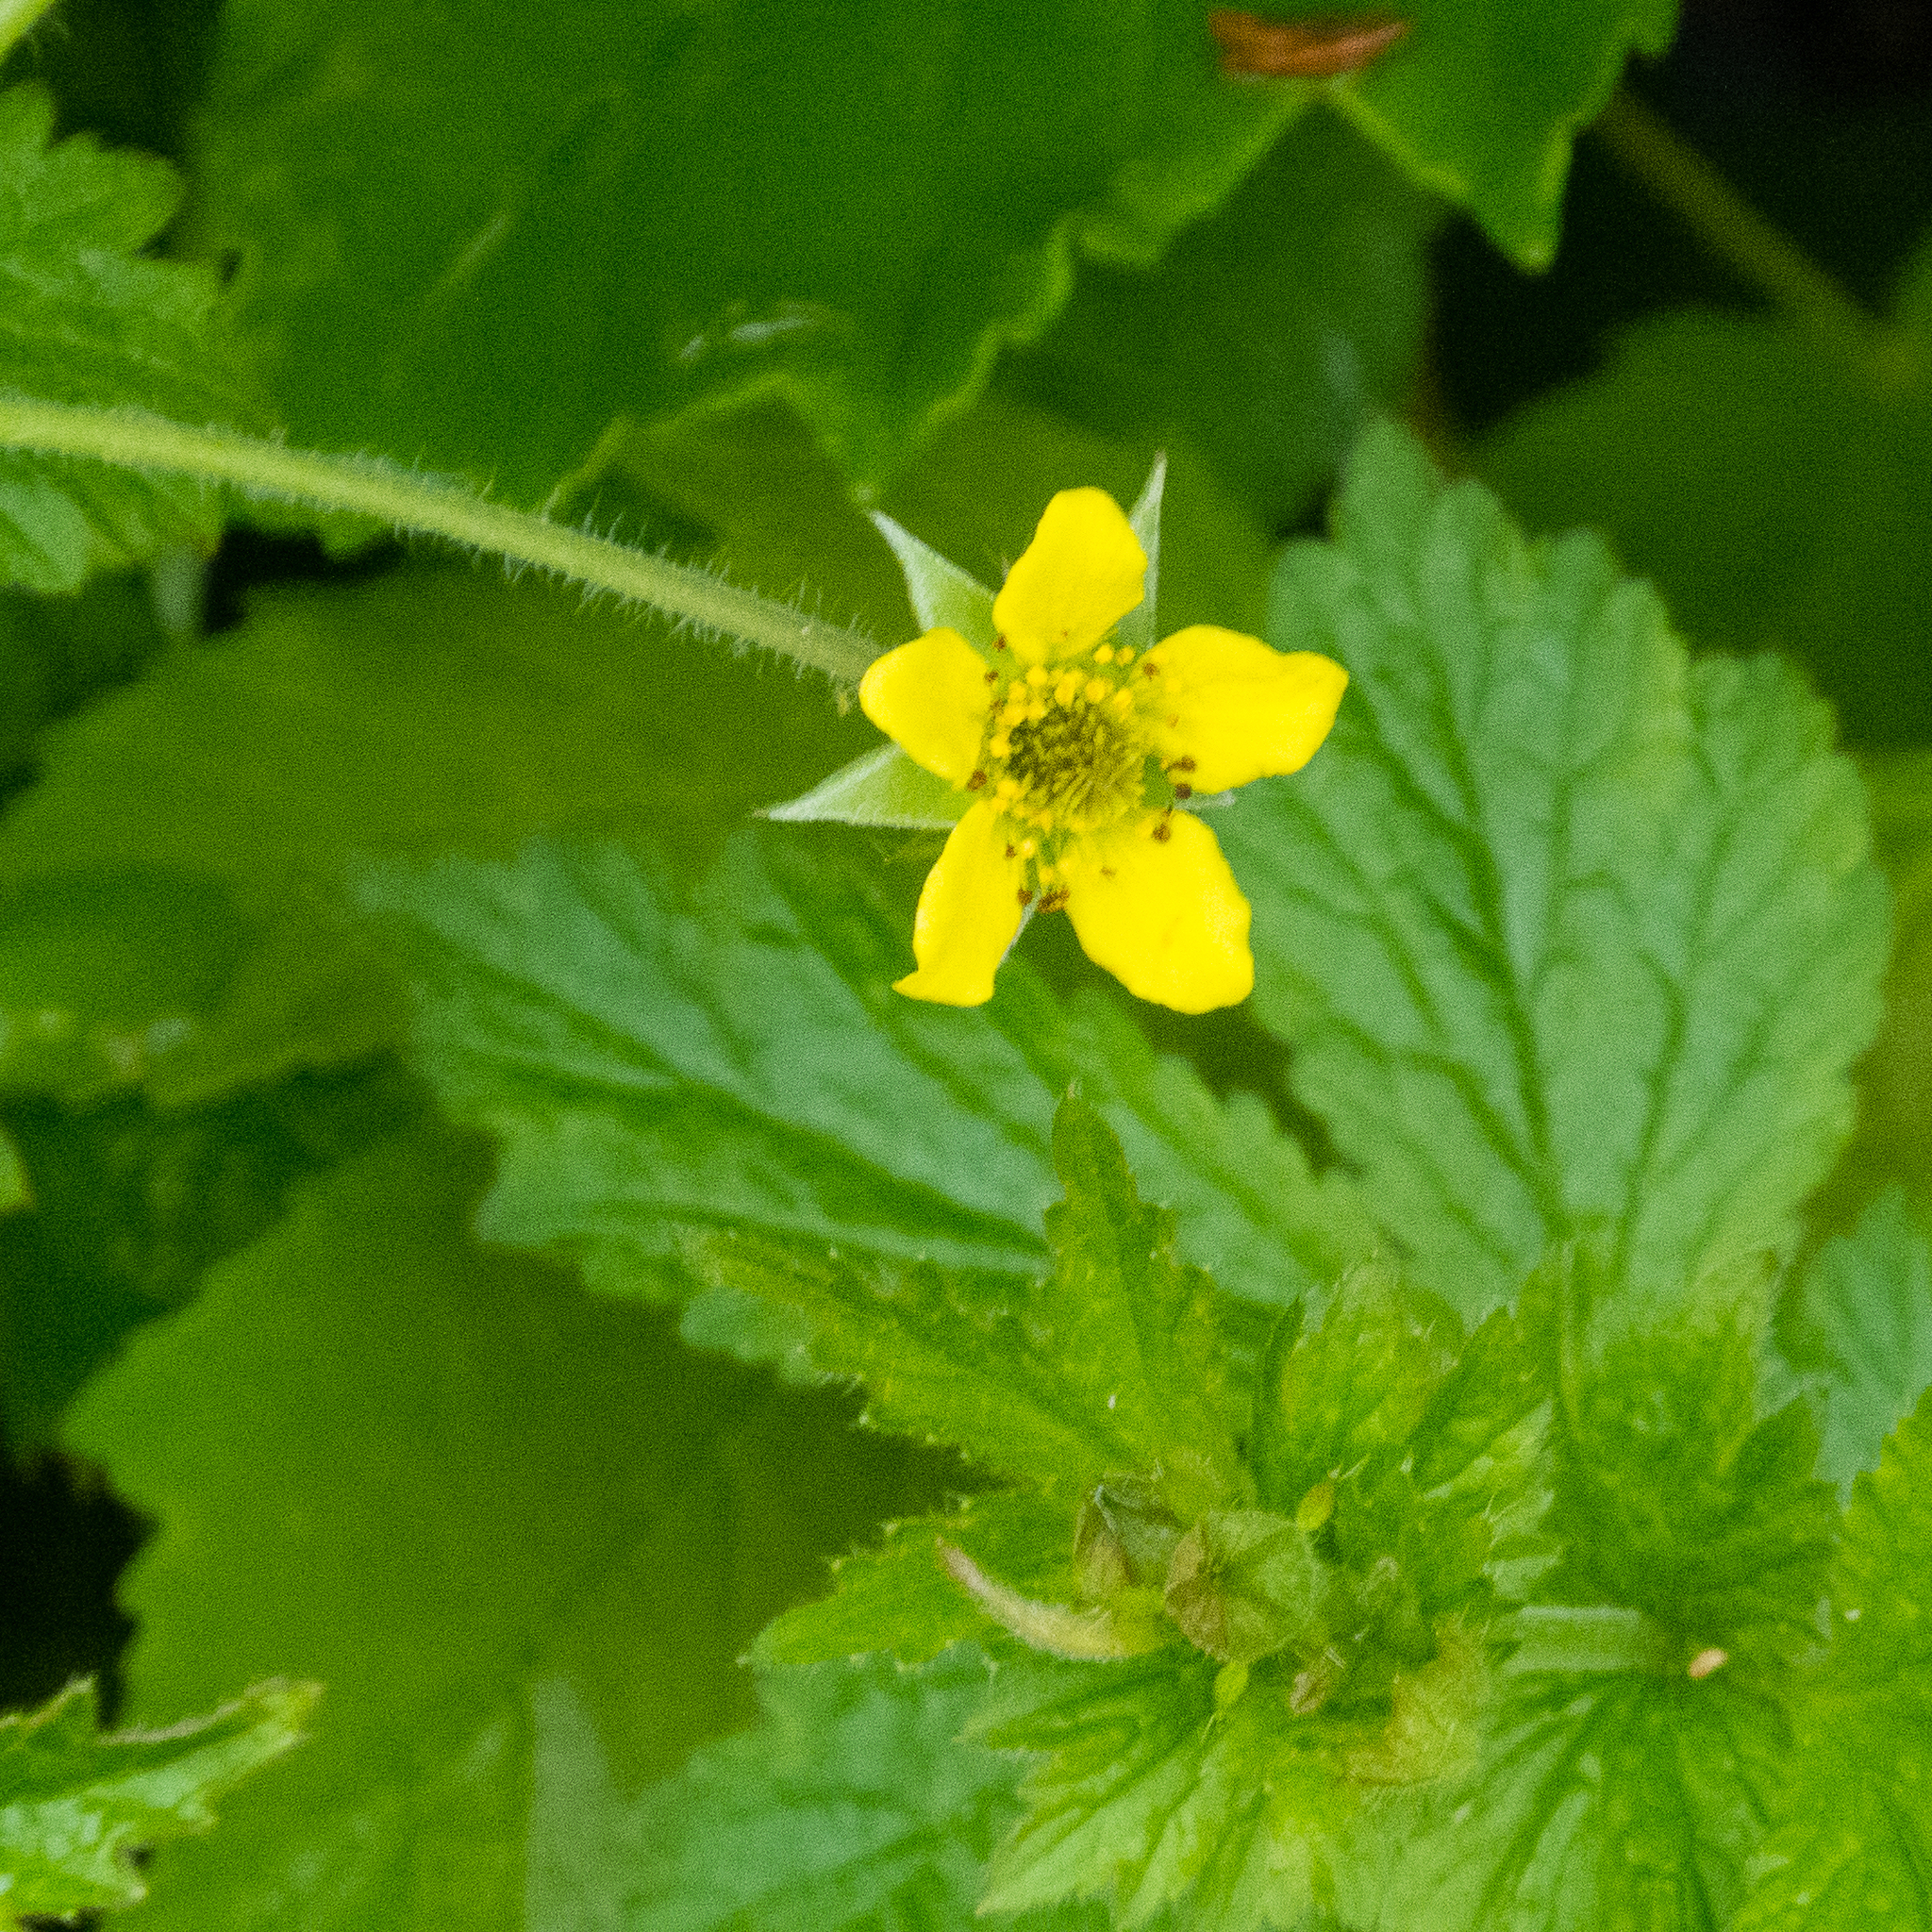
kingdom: Plantae
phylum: Tracheophyta
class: Magnoliopsida
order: Rosales
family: Rosaceae
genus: Geum
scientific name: Geum urbanum
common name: Wood avens
